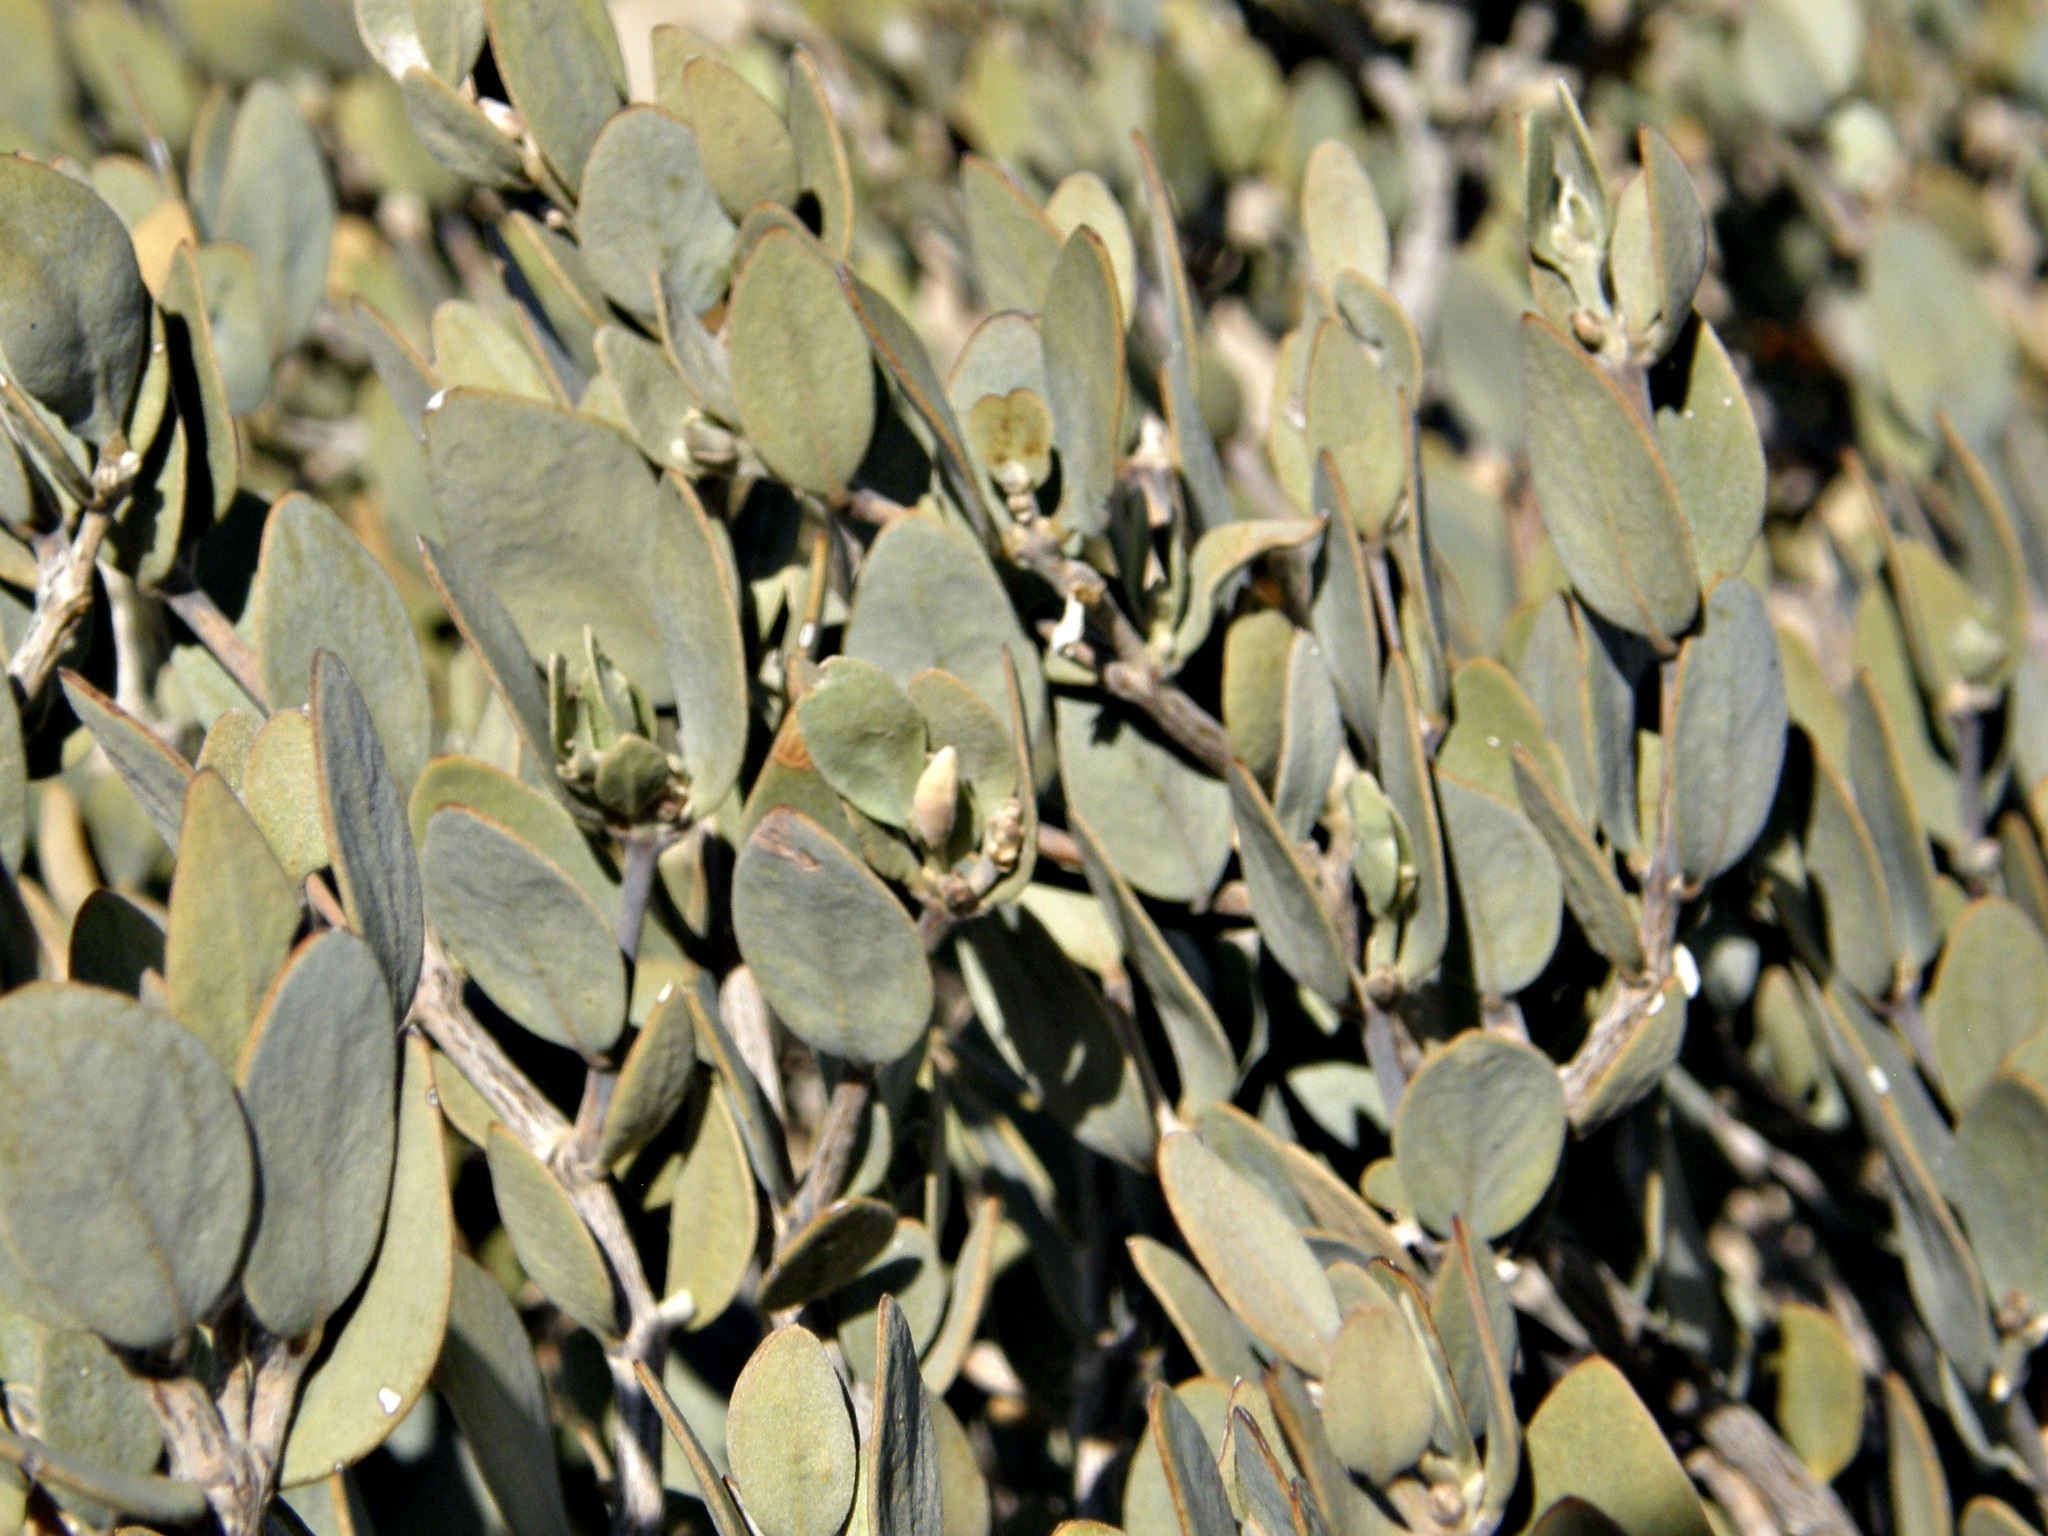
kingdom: Plantae
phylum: Tracheophyta
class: Magnoliopsida
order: Caryophyllales
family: Simmondsiaceae
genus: Simmondsia
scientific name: Simmondsia chinensis
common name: Jojoba
